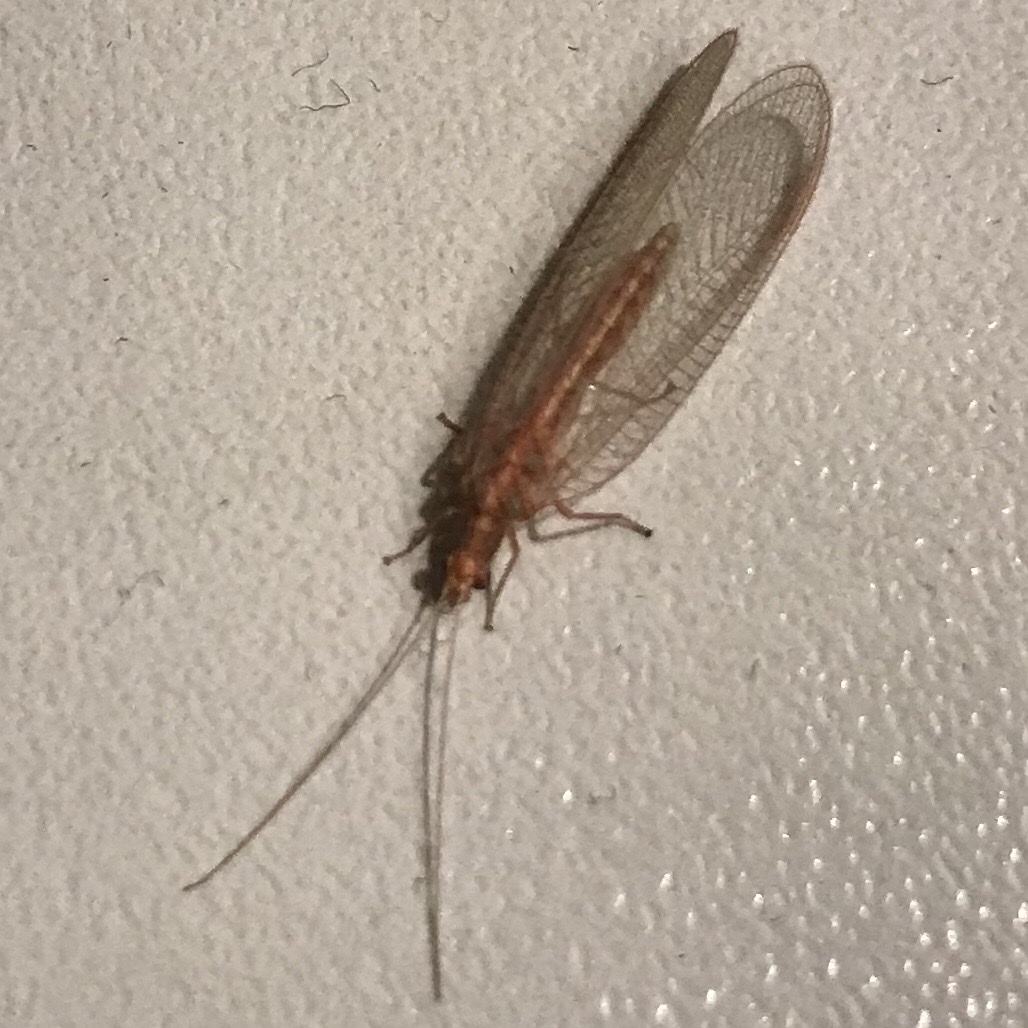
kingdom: Animalia
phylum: Arthropoda
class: Insecta
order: Neuroptera
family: Chrysopidae
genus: Chrysoperla
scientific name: Chrysoperla
